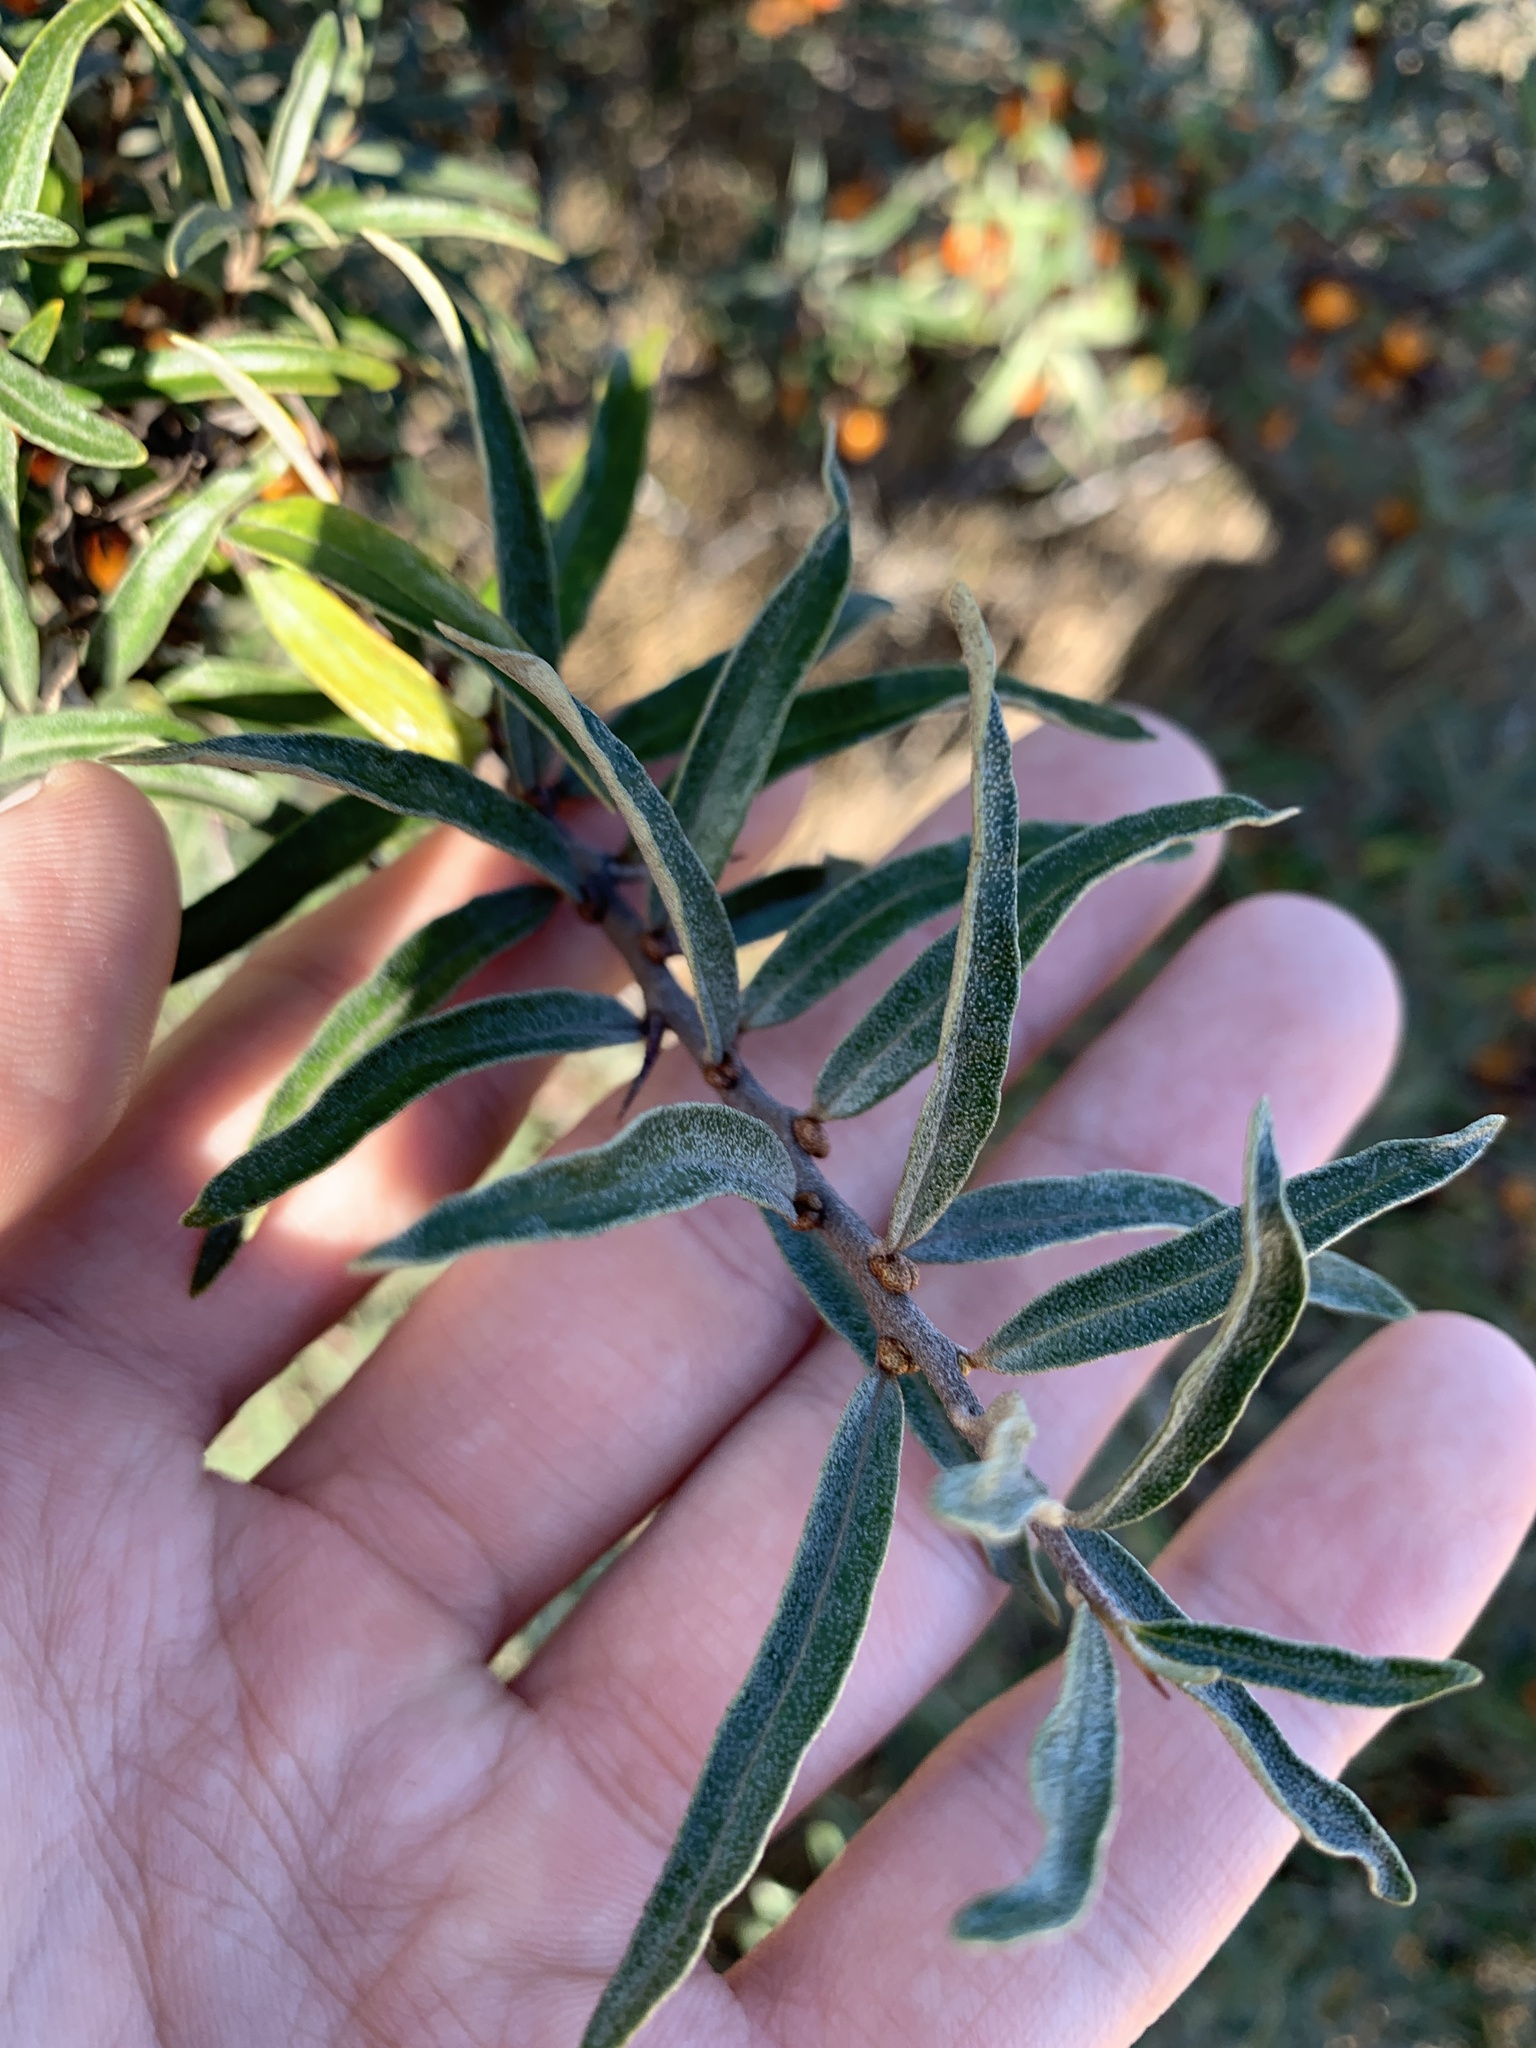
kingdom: Plantae
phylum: Tracheophyta
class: Magnoliopsida
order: Rosales
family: Elaeagnaceae
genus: Hippophae
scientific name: Hippophae rhamnoides
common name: Sea-buckthorn
